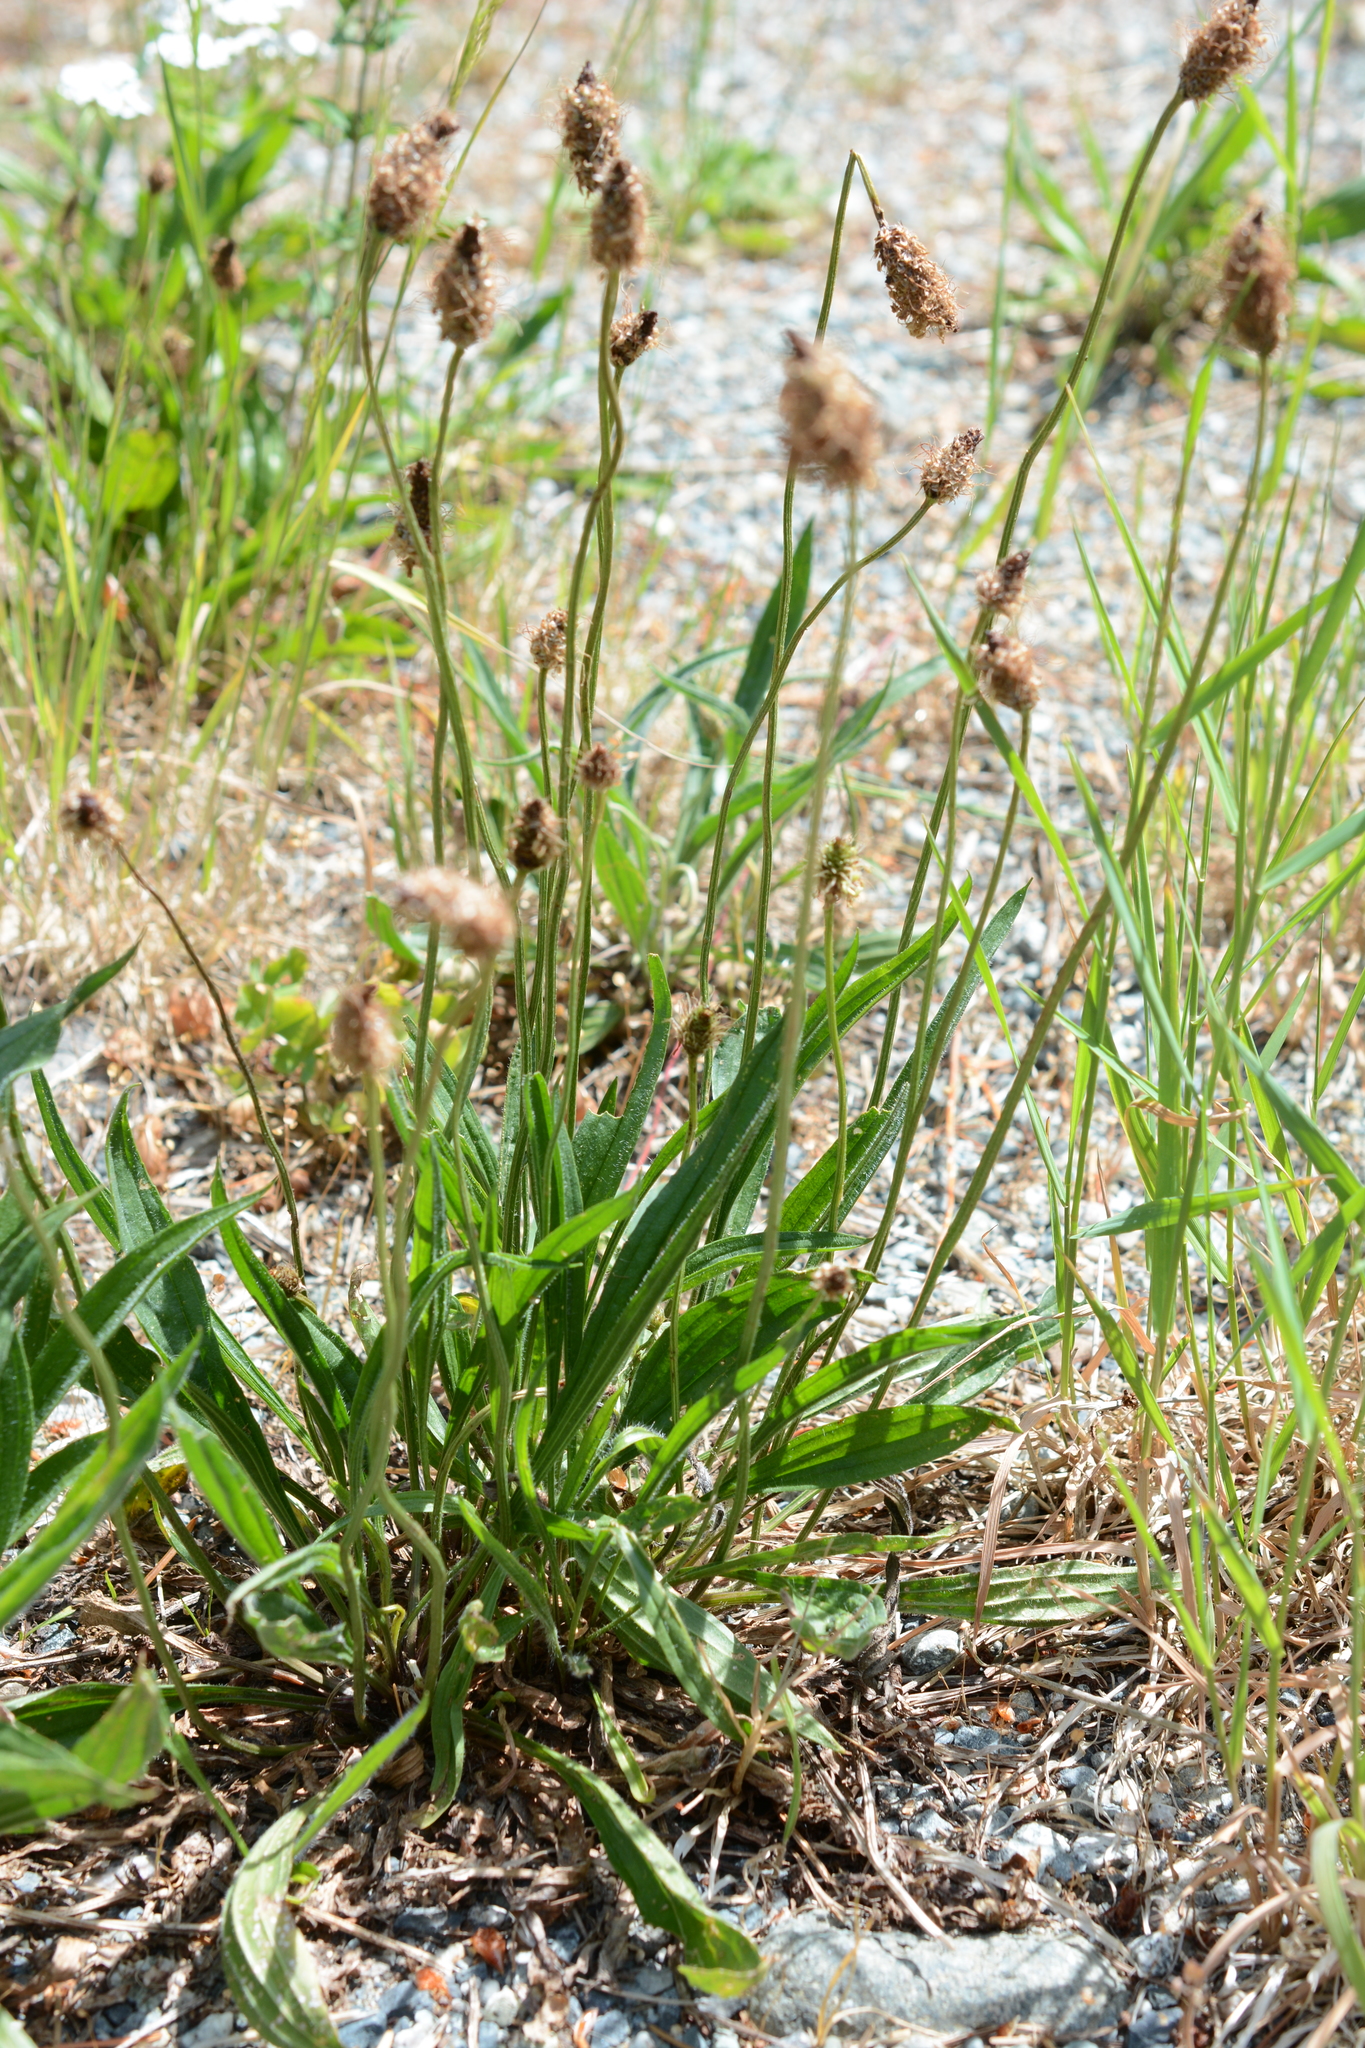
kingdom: Plantae
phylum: Tracheophyta
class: Magnoliopsida
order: Lamiales
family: Plantaginaceae
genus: Plantago
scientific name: Plantago lanceolata
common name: Ribwort plantain
